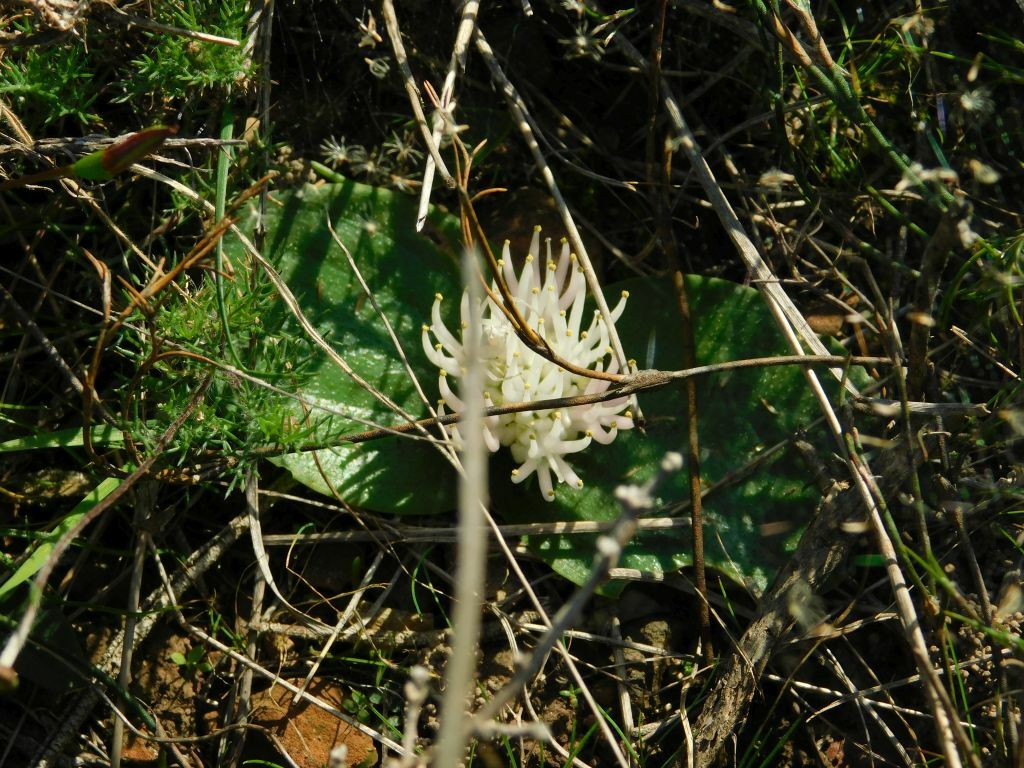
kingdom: Plantae
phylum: Tracheophyta
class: Liliopsida
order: Asparagales
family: Asparagaceae
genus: Massonia
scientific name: Massonia setulosa
